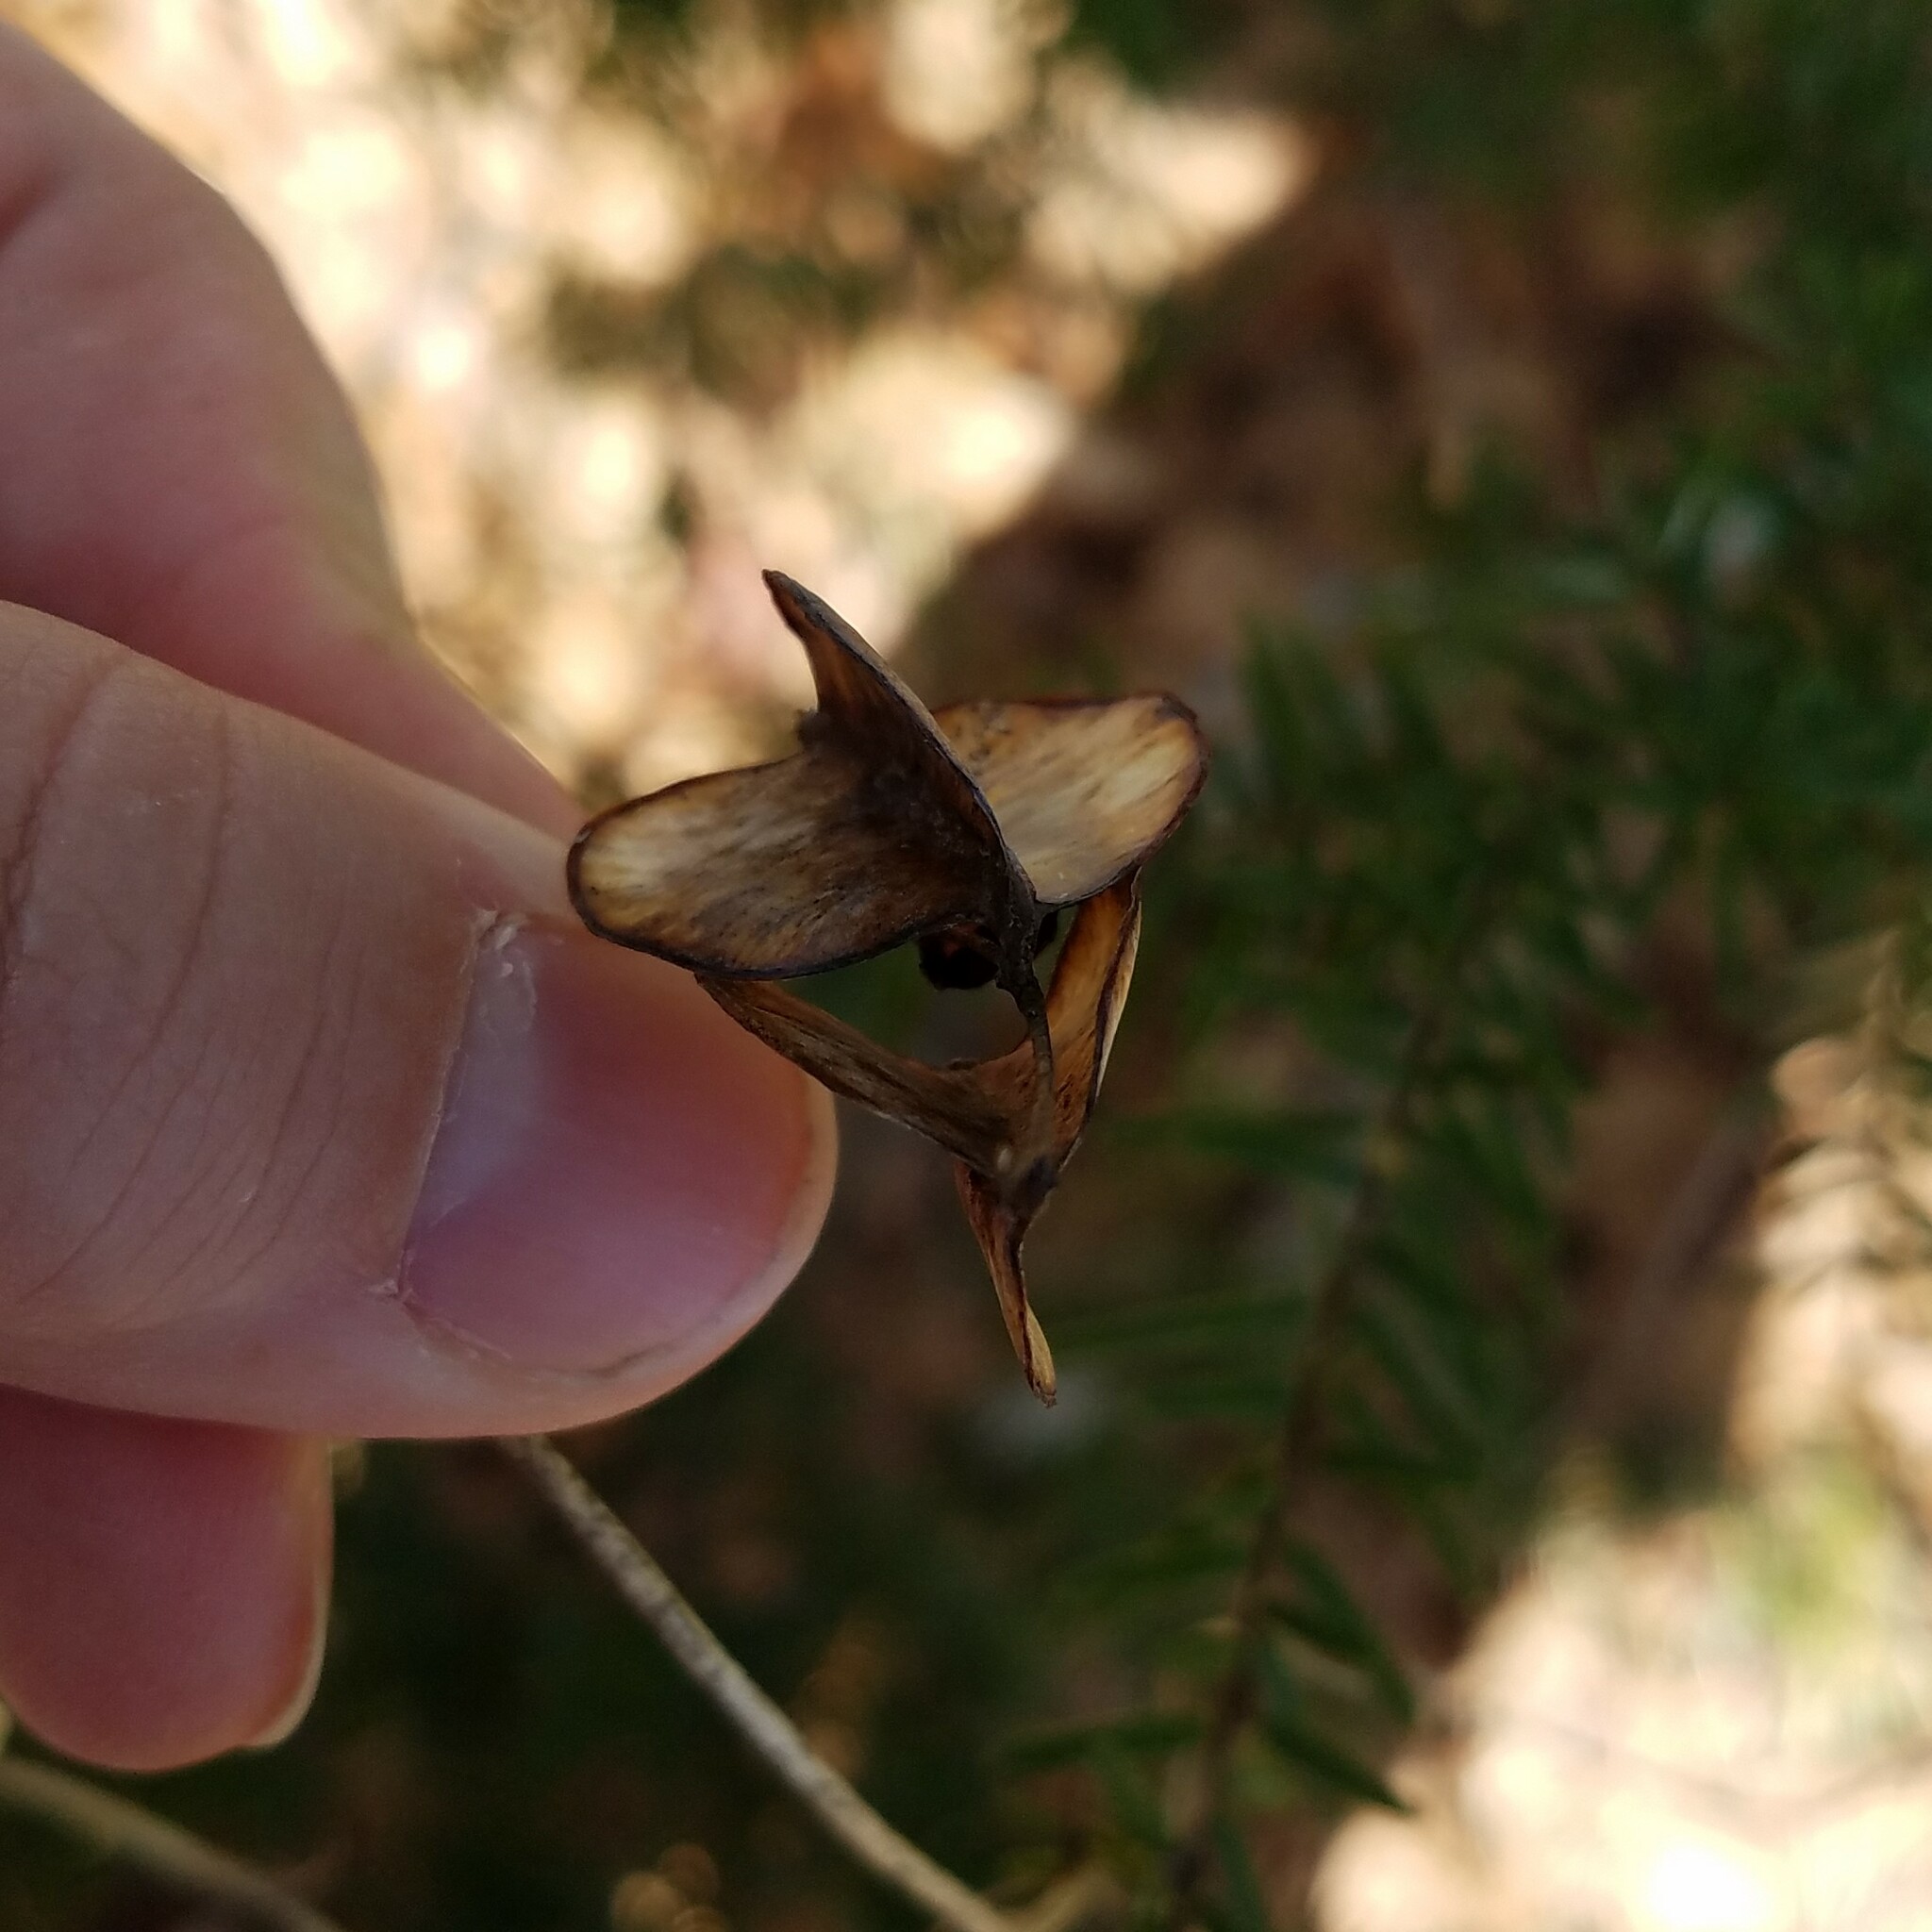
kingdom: Plantae
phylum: Tracheophyta
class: Liliopsida
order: Dioscoreales
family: Dioscoreaceae
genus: Dioscorea
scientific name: Dioscorea villosa
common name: Wild yam
